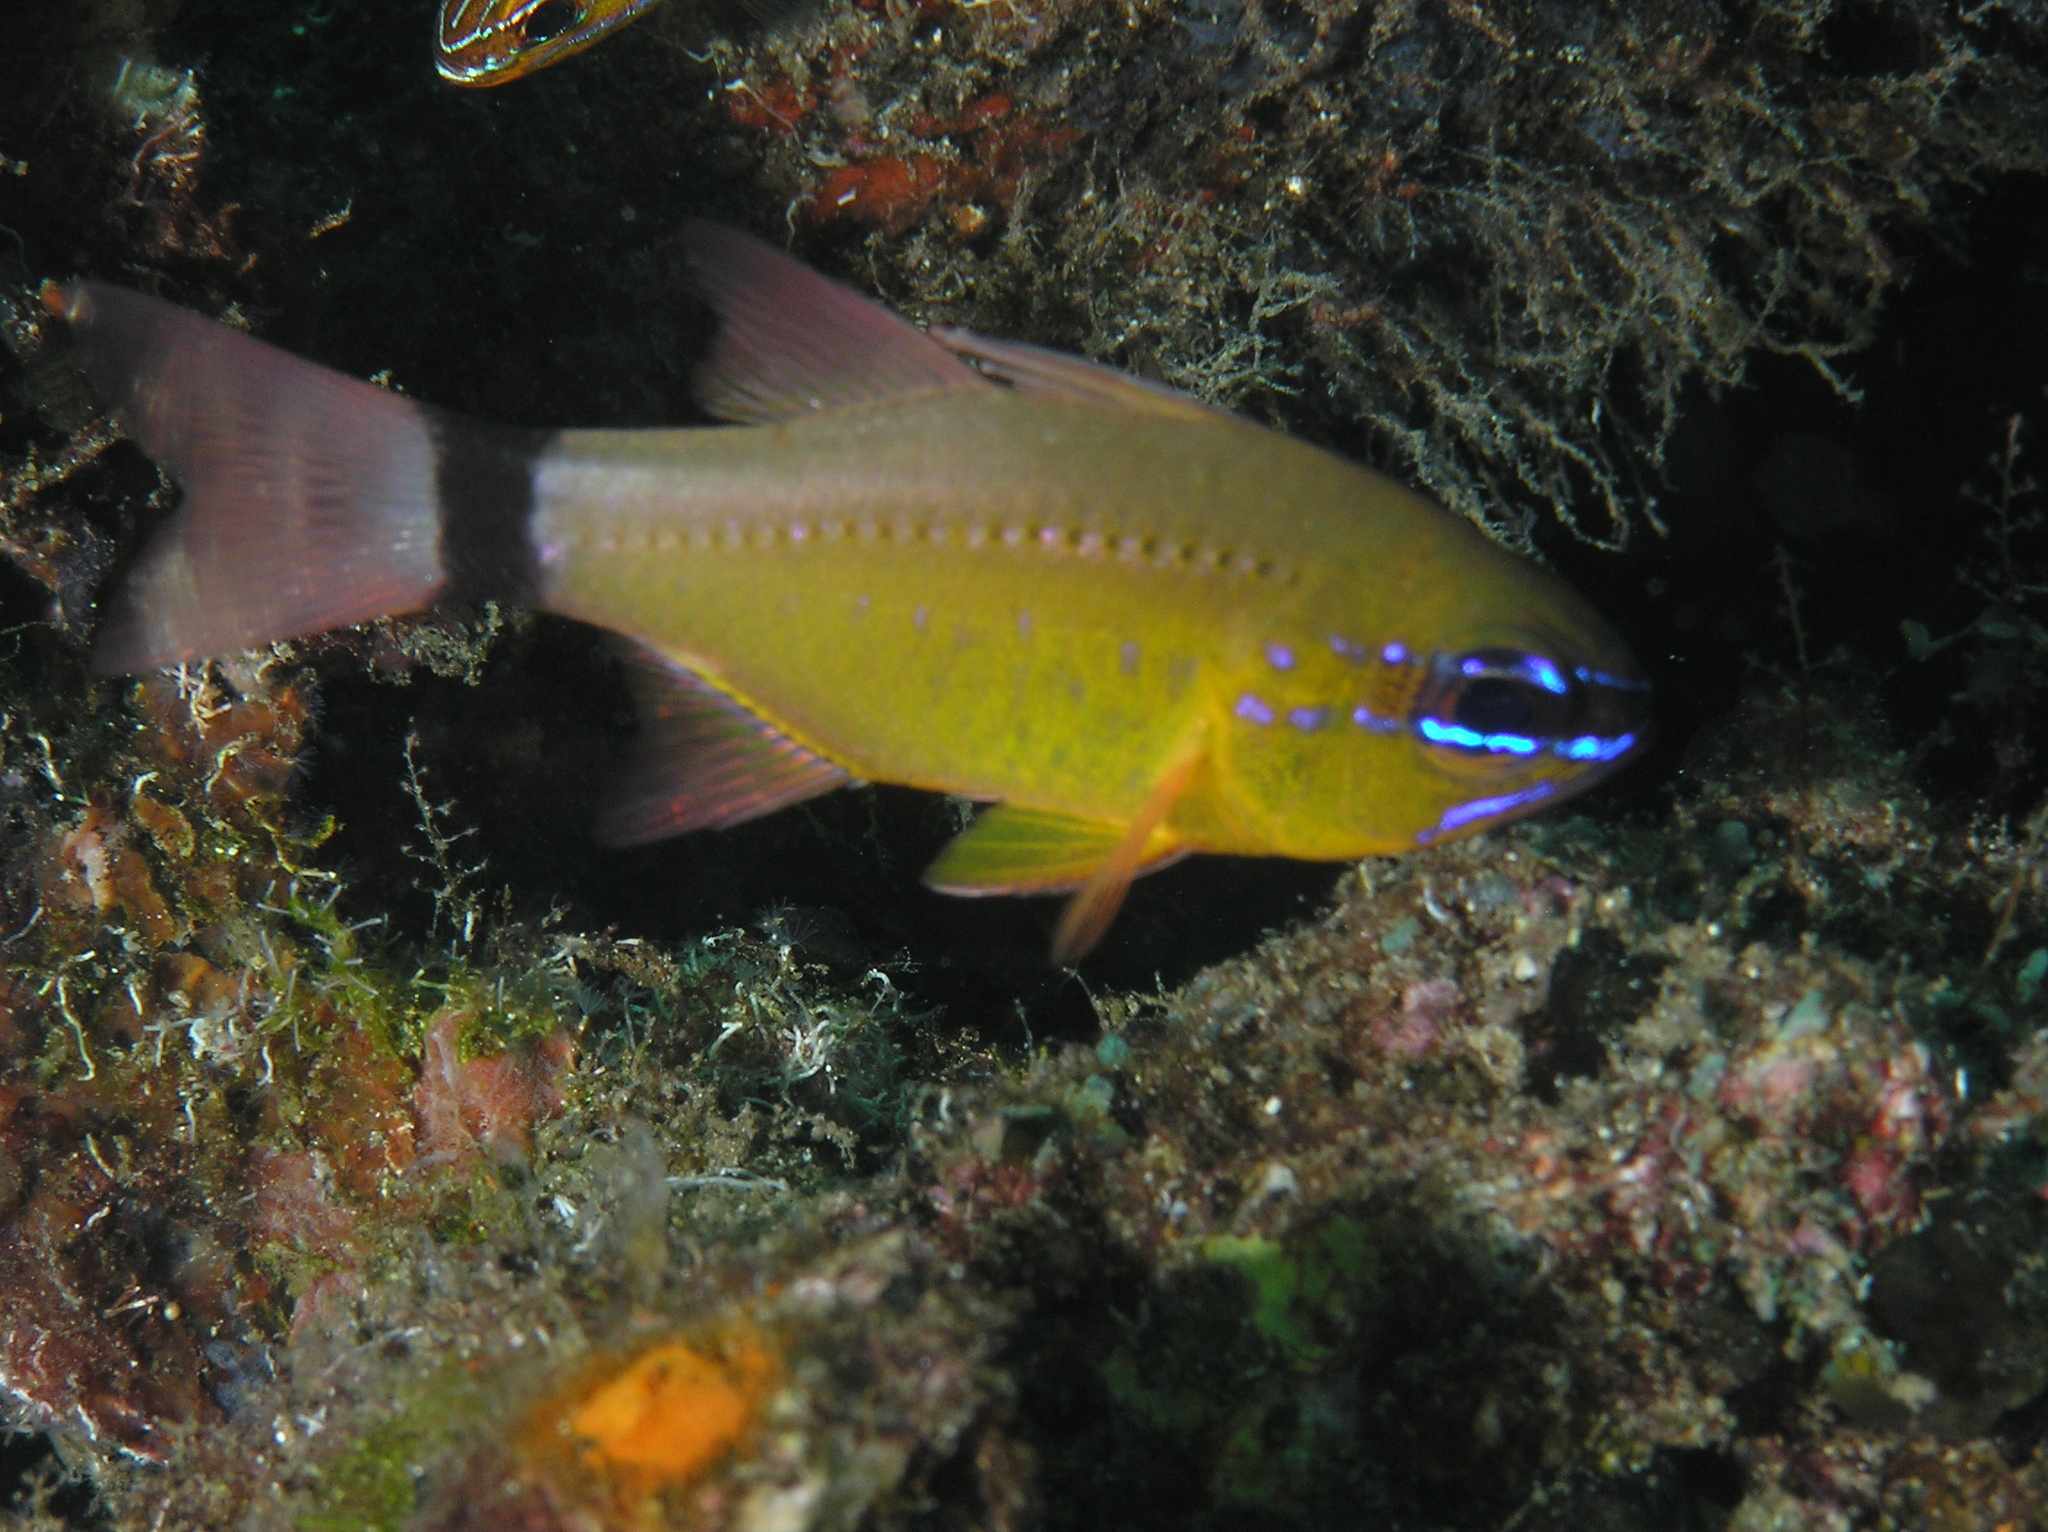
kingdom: Animalia
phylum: Chordata
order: Perciformes
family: Apogonidae
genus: Ostorhinchus
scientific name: Ostorhinchus aureus
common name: Ring-tailed cardinalfish
